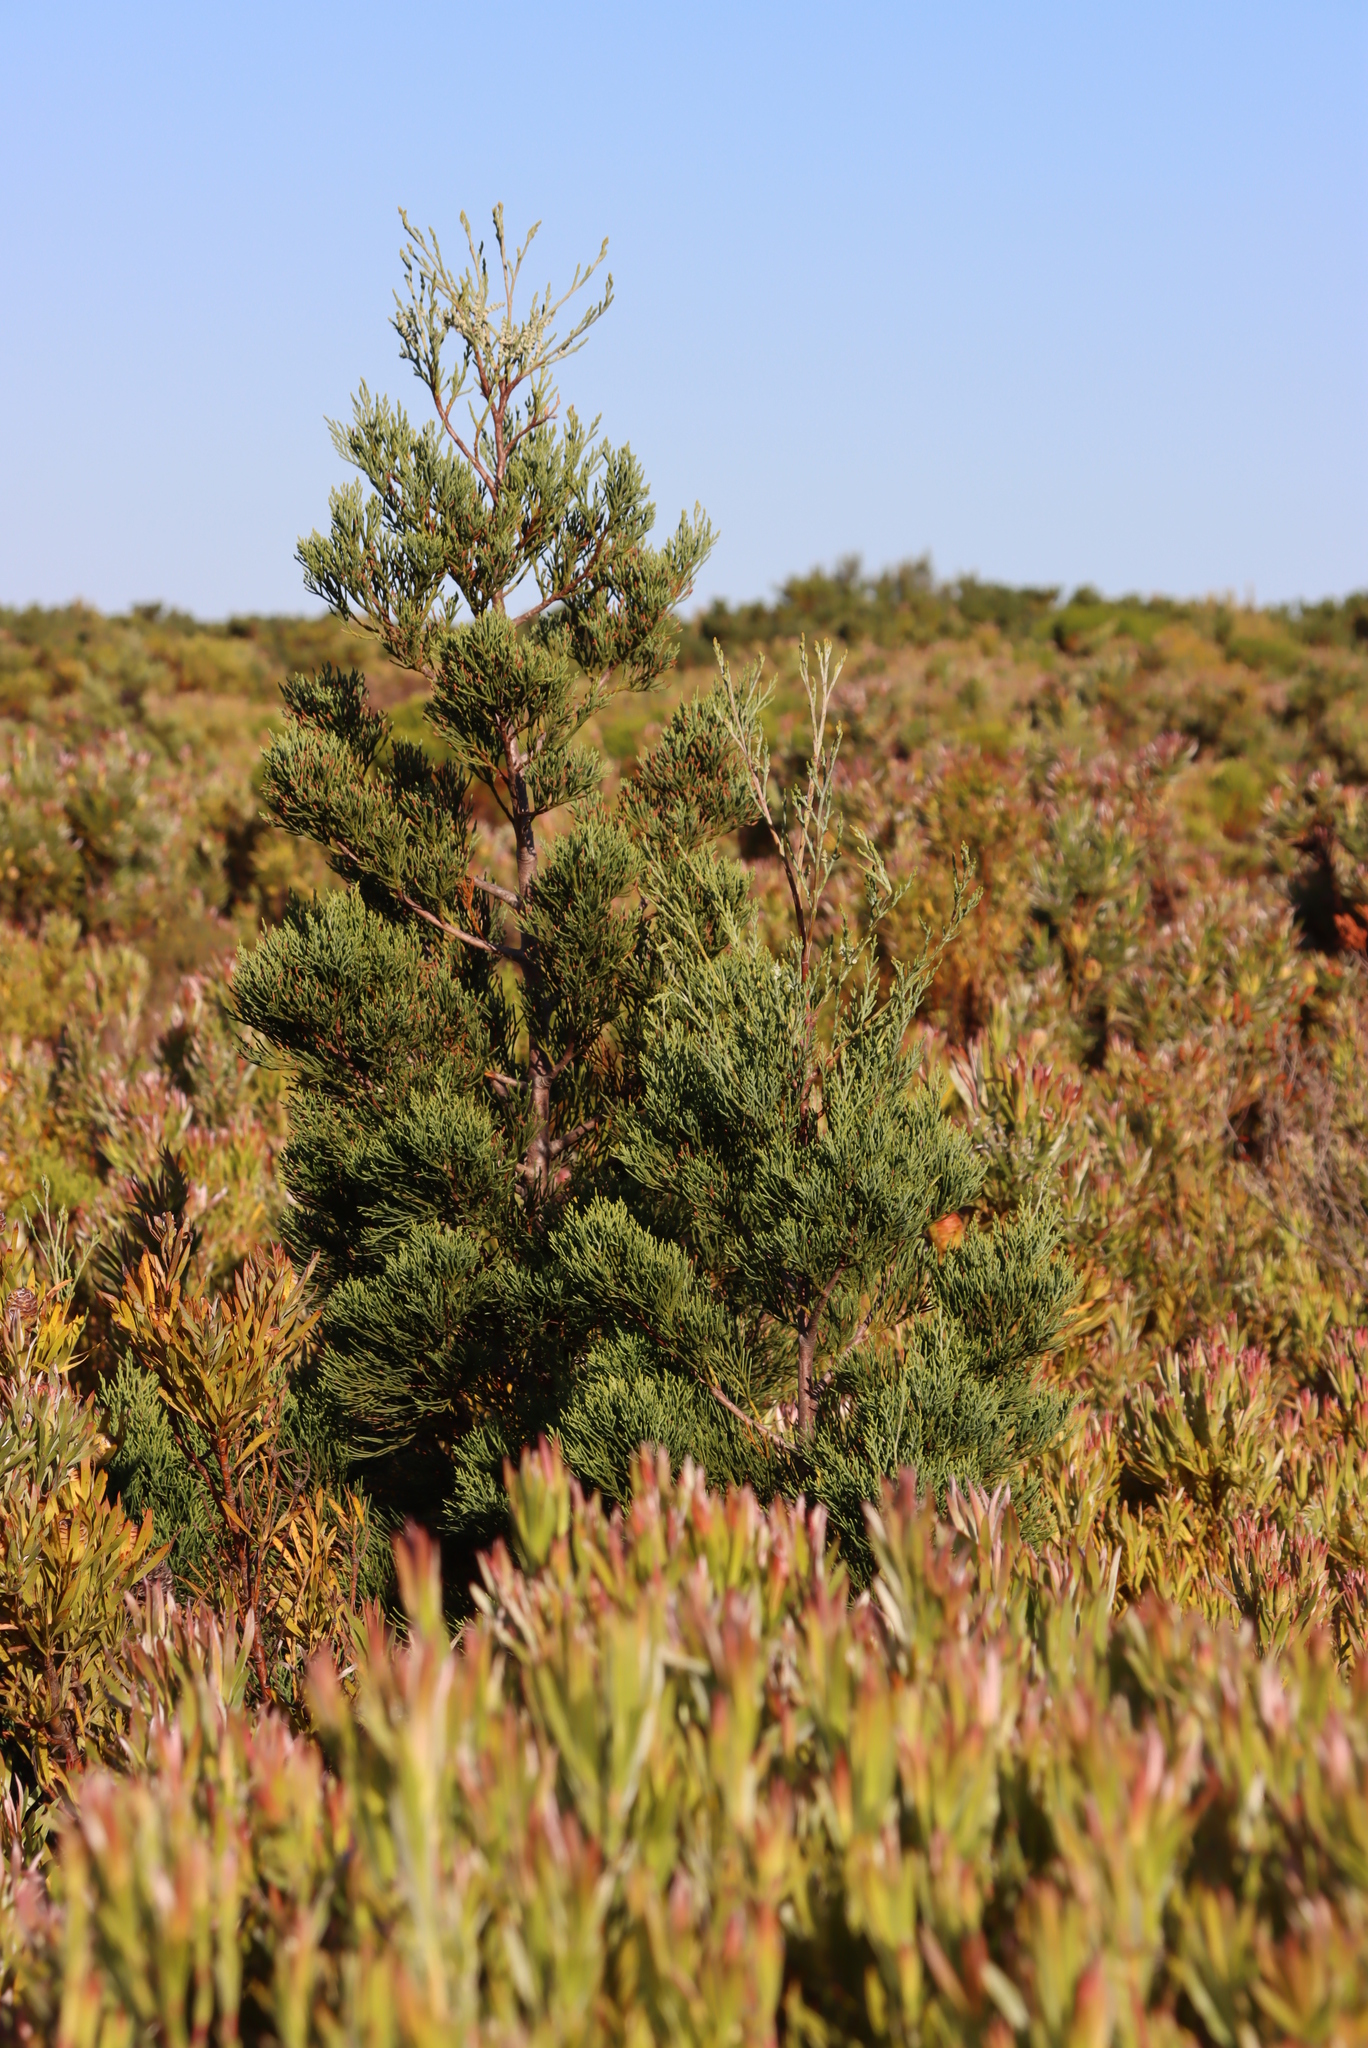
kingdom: Plantae
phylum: Tracheophyta
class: Pinopsida
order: Pinales
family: Cupressaceae
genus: Widdringtonia
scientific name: Widdringtonia nodiflora
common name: Cape cypress
